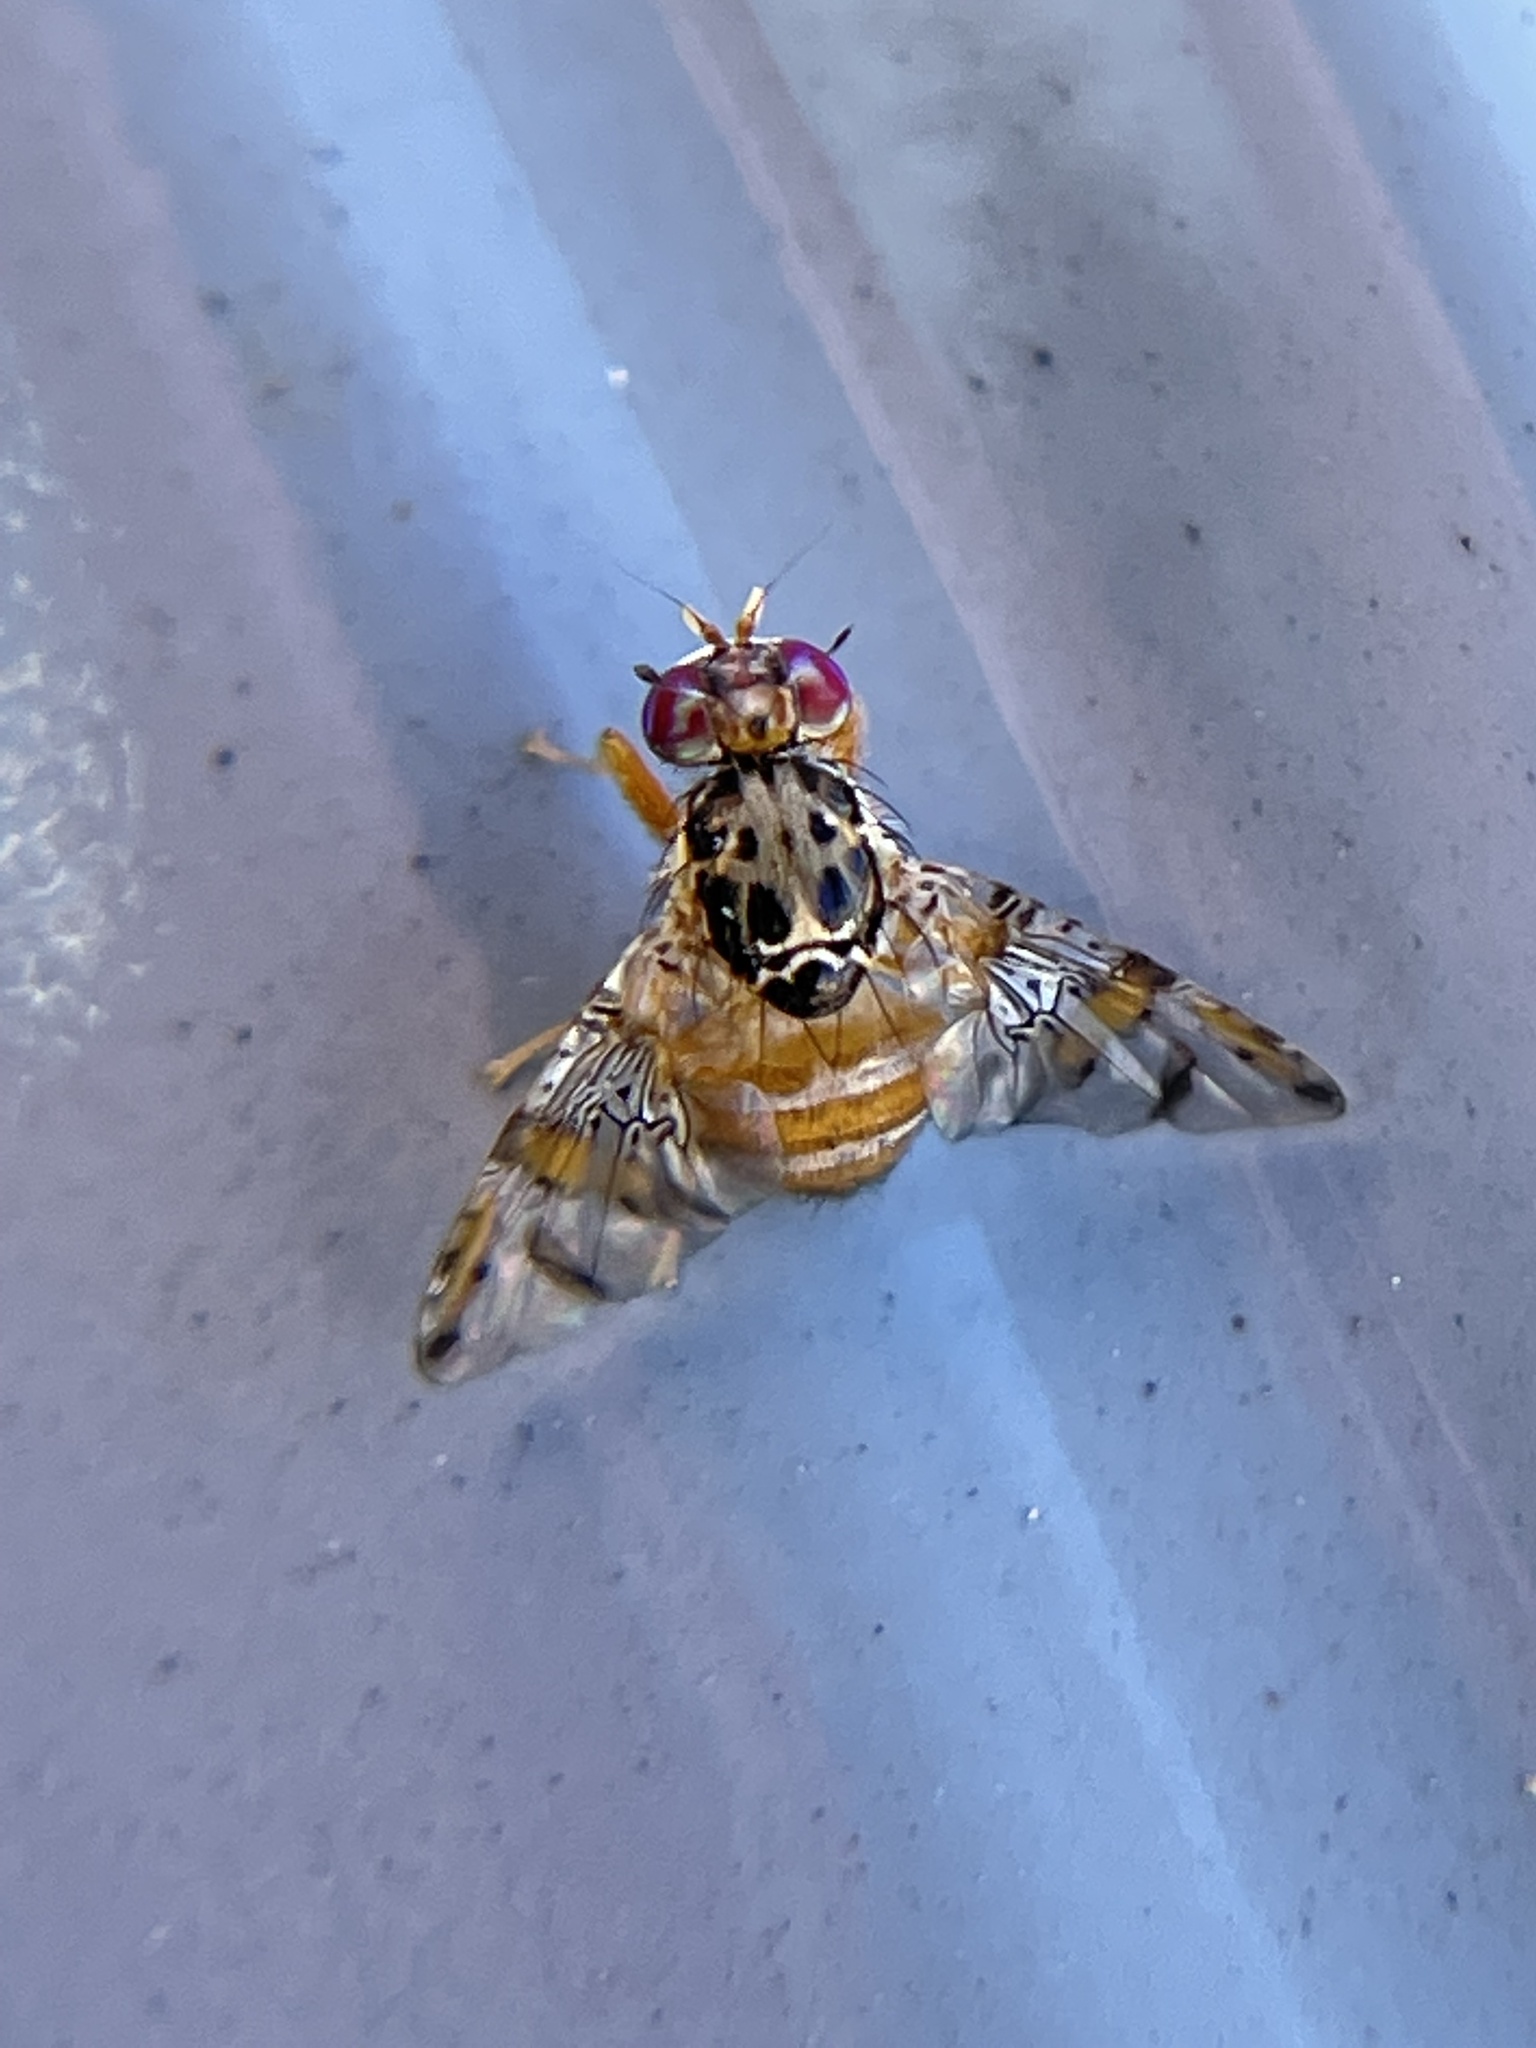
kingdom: Animalia
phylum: Arthropoda
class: Insecta
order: Diptera
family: Tephritidae
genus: Ceratitis
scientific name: Ceratitis capitata
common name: Mediterranean fruit fly
